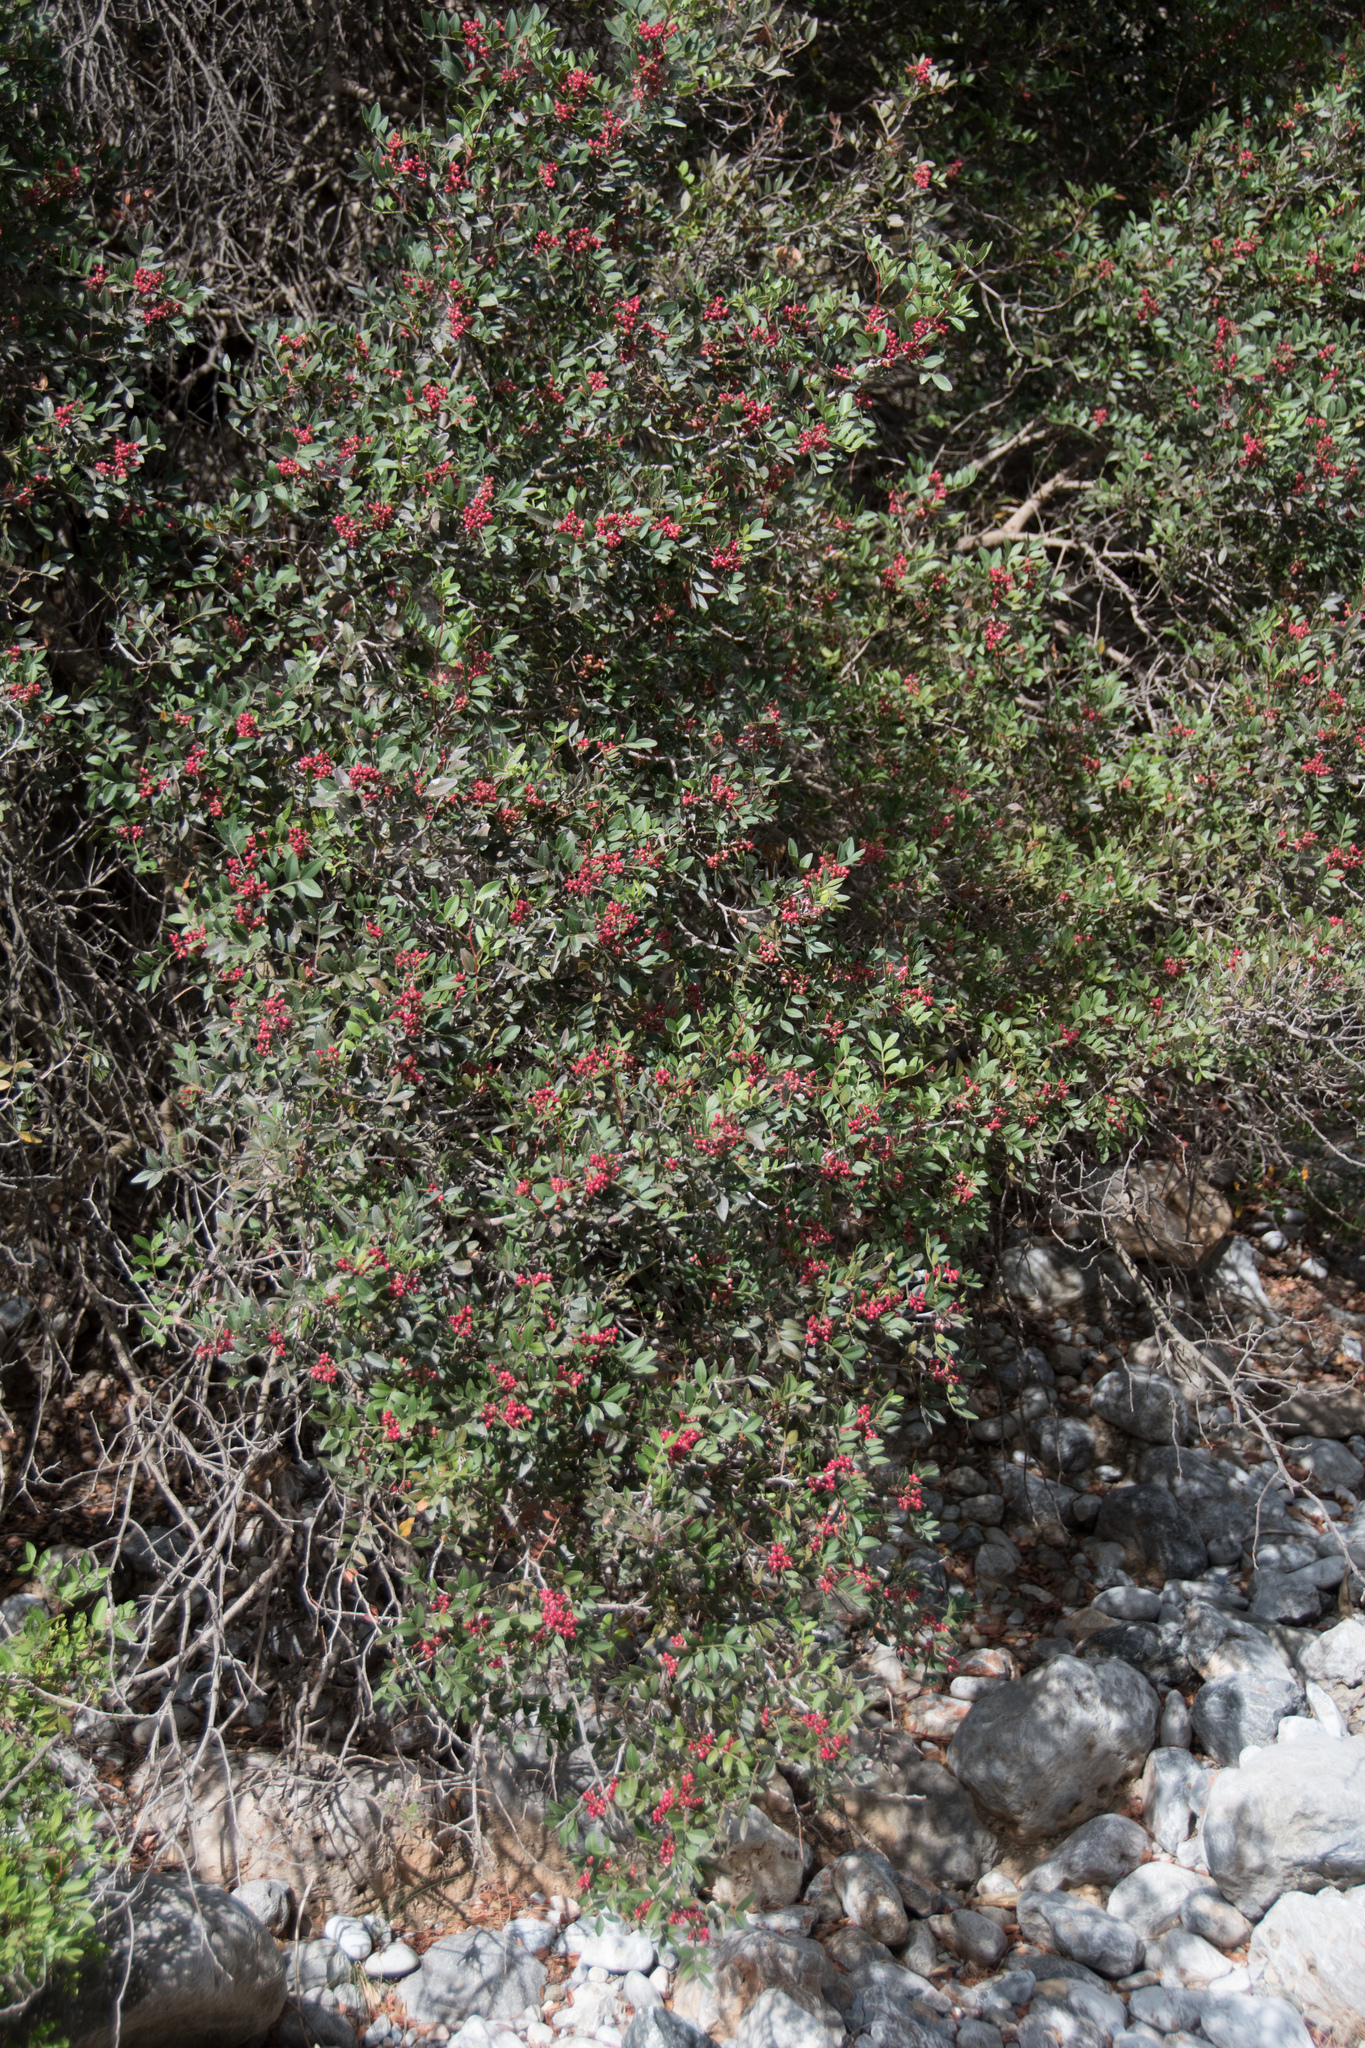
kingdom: Plantae
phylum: Tracheophyta
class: Magnoliopsida
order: Sapindales
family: Anacardiaceae
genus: Pistacia
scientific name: Pistacia lentiscus
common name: Lentisk
